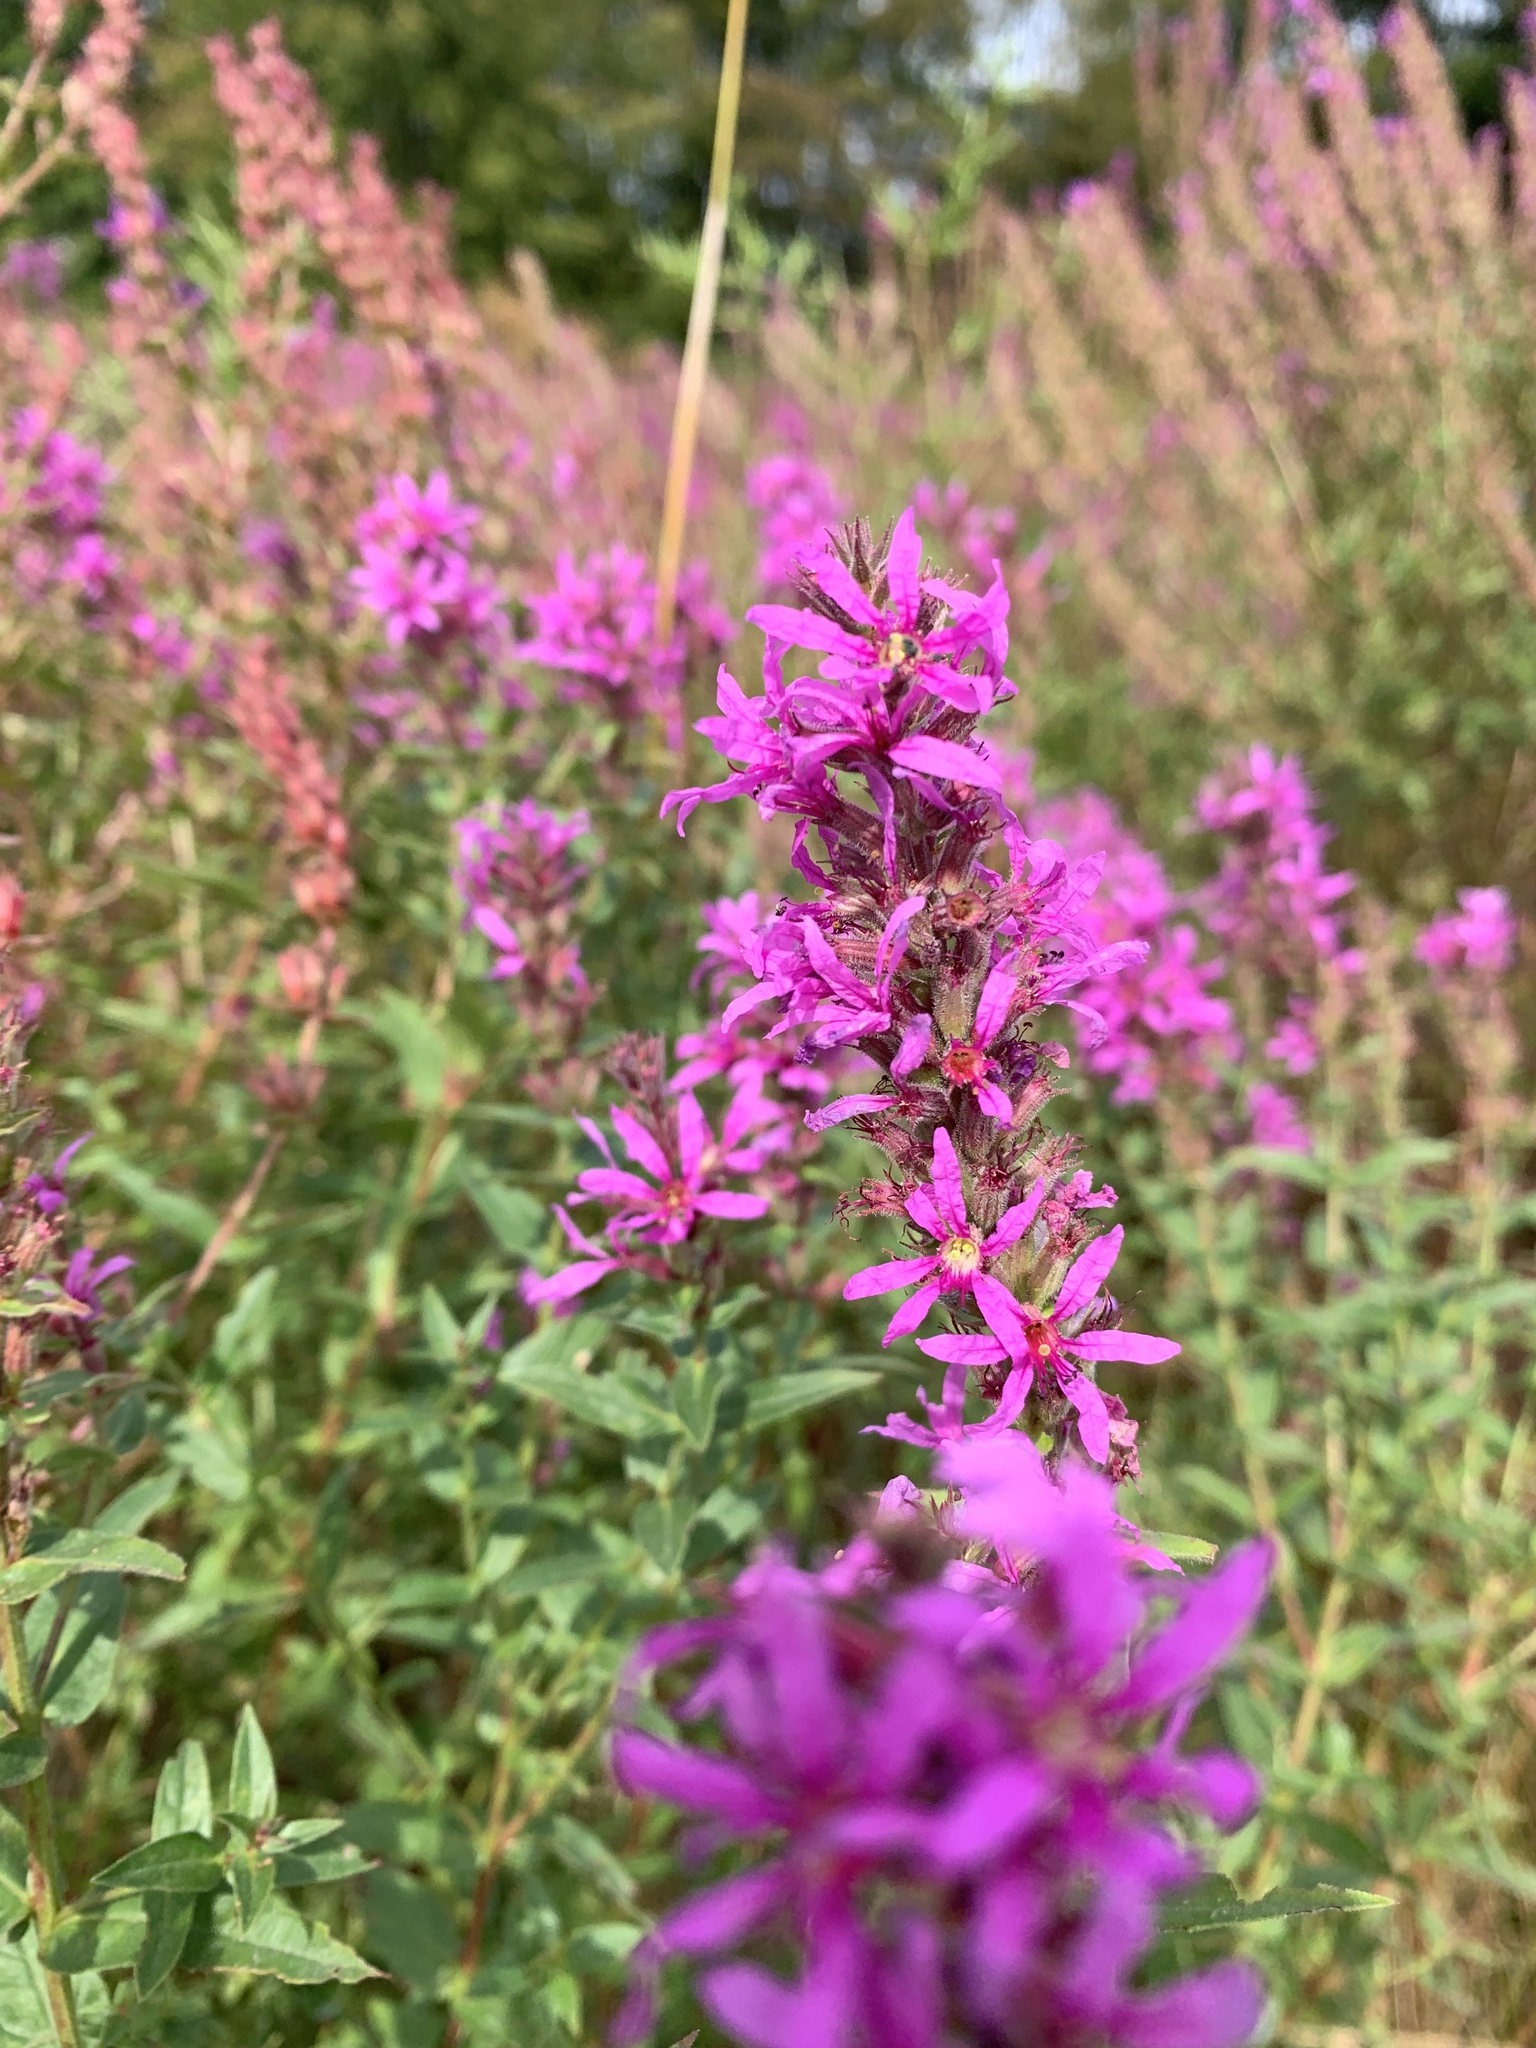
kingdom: Plantae
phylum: Tracheophyta
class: Magnoliopsida
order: Myrtales
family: Lythraceae
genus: Lythrum
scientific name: Lythrum salicaria
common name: Purple loosestrife
